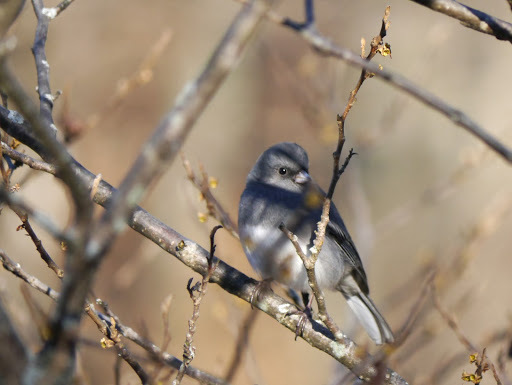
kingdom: Animalia
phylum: Chordata
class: Aves
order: Passeriformes
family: Passerellidae
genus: Junco
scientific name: Junco hyemalis
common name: Dark-eyed junco
